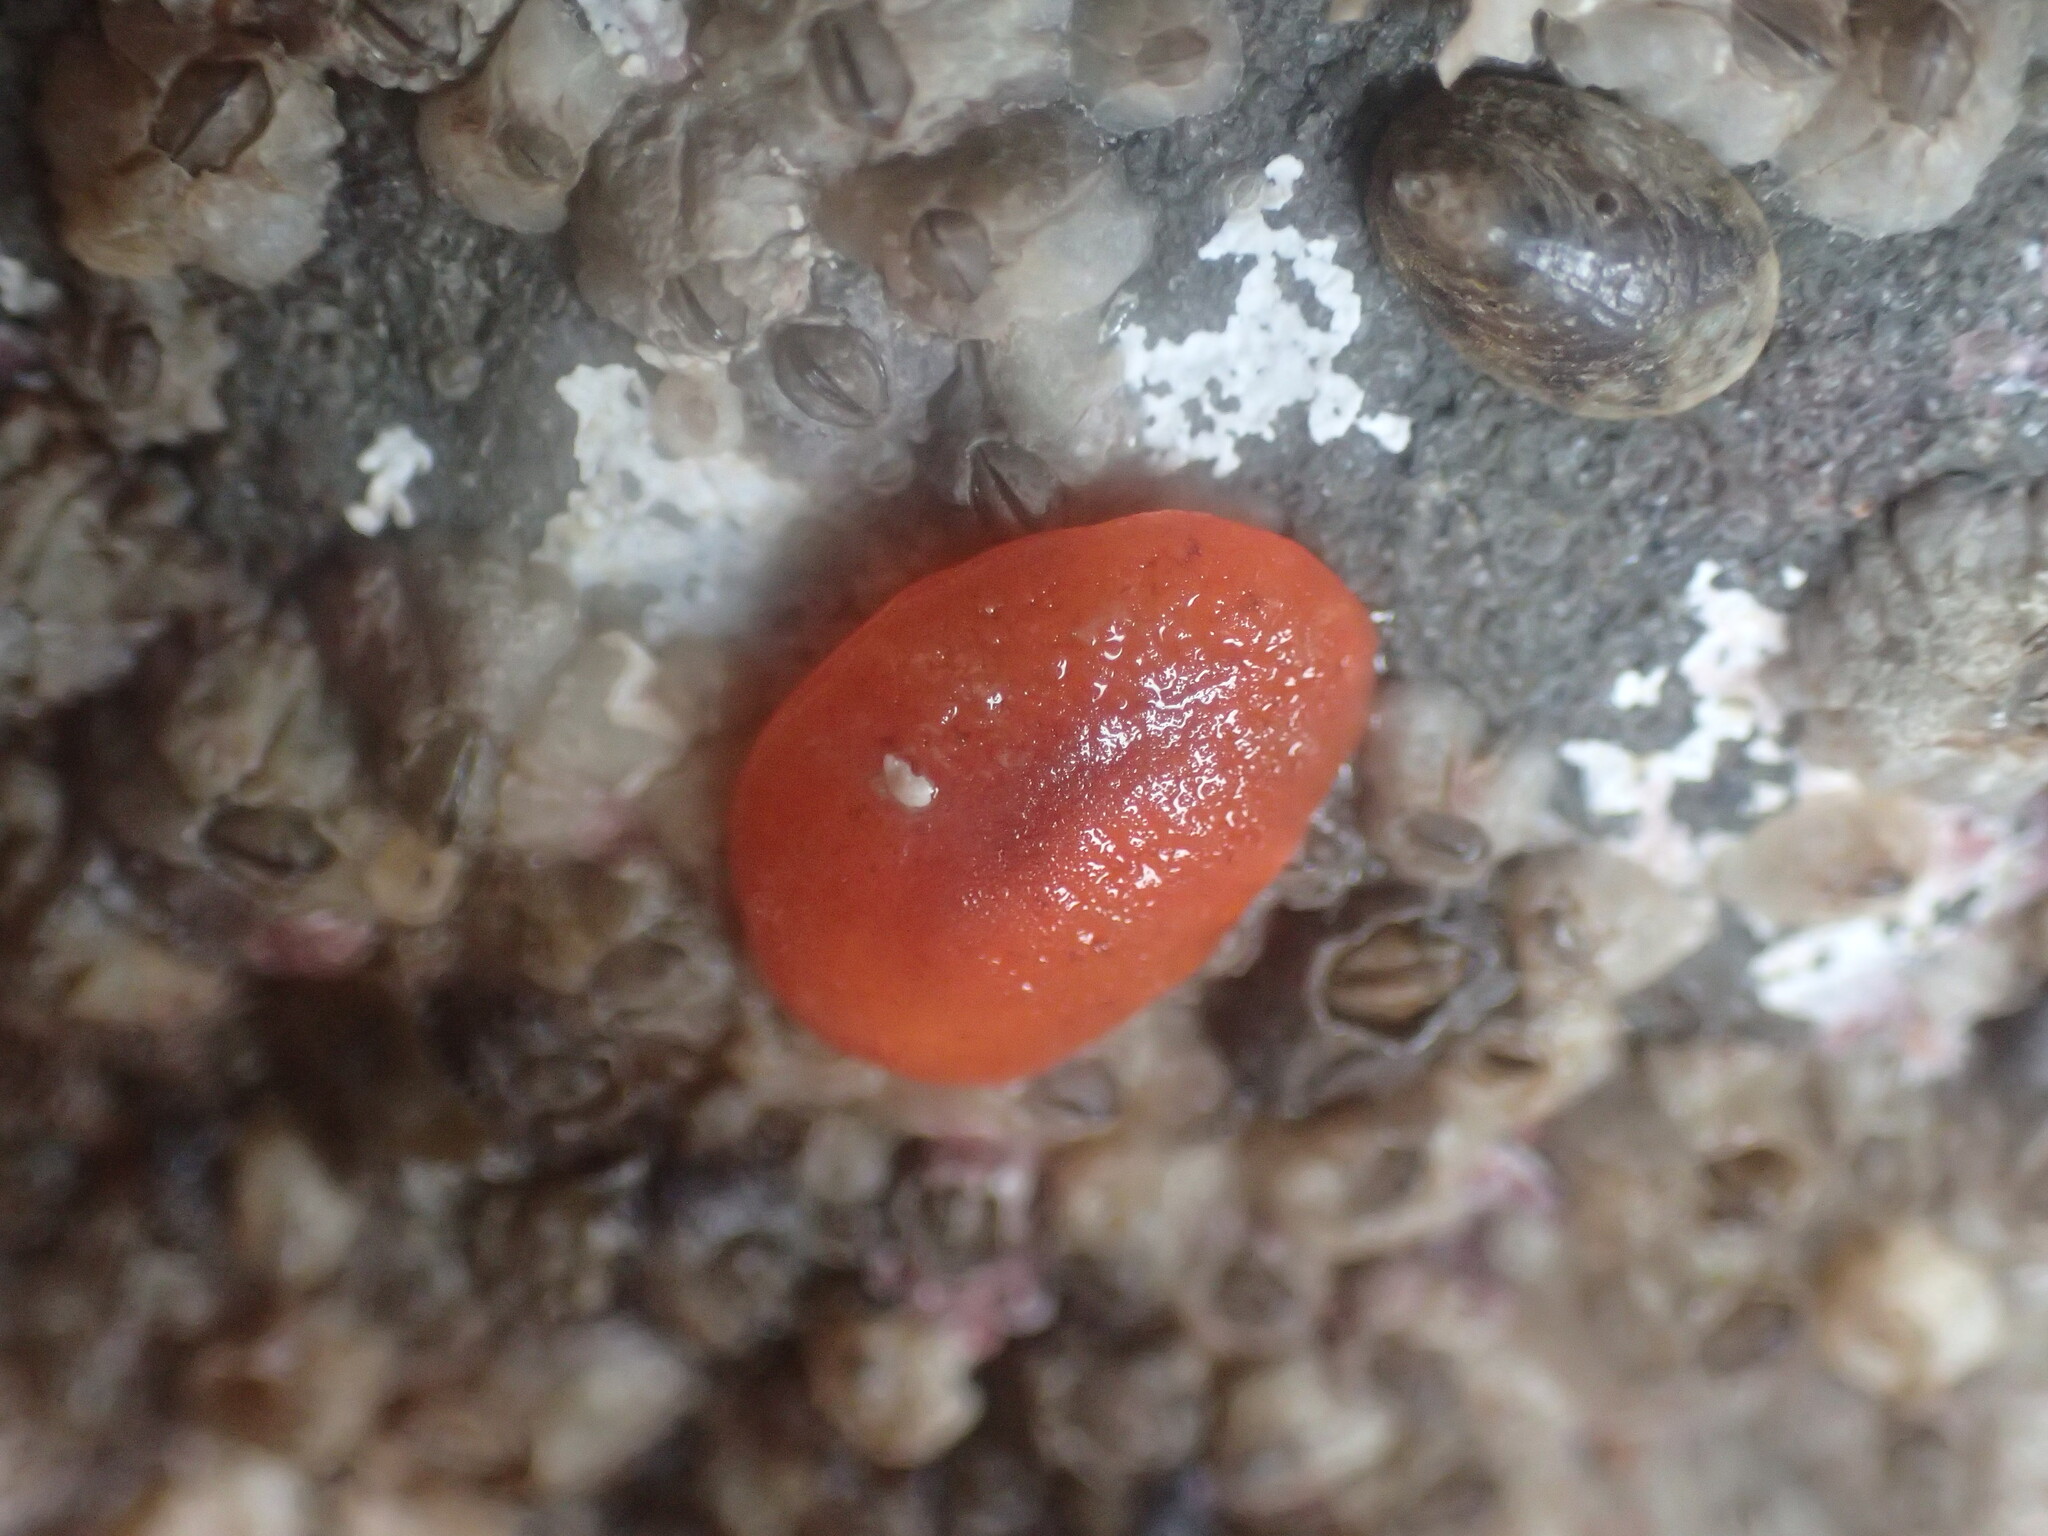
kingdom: Animalia
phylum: Mollusca
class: Gastropoda
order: Nudibranchia
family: Discodorididae
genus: Rostanga
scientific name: Rostanga pulchra
